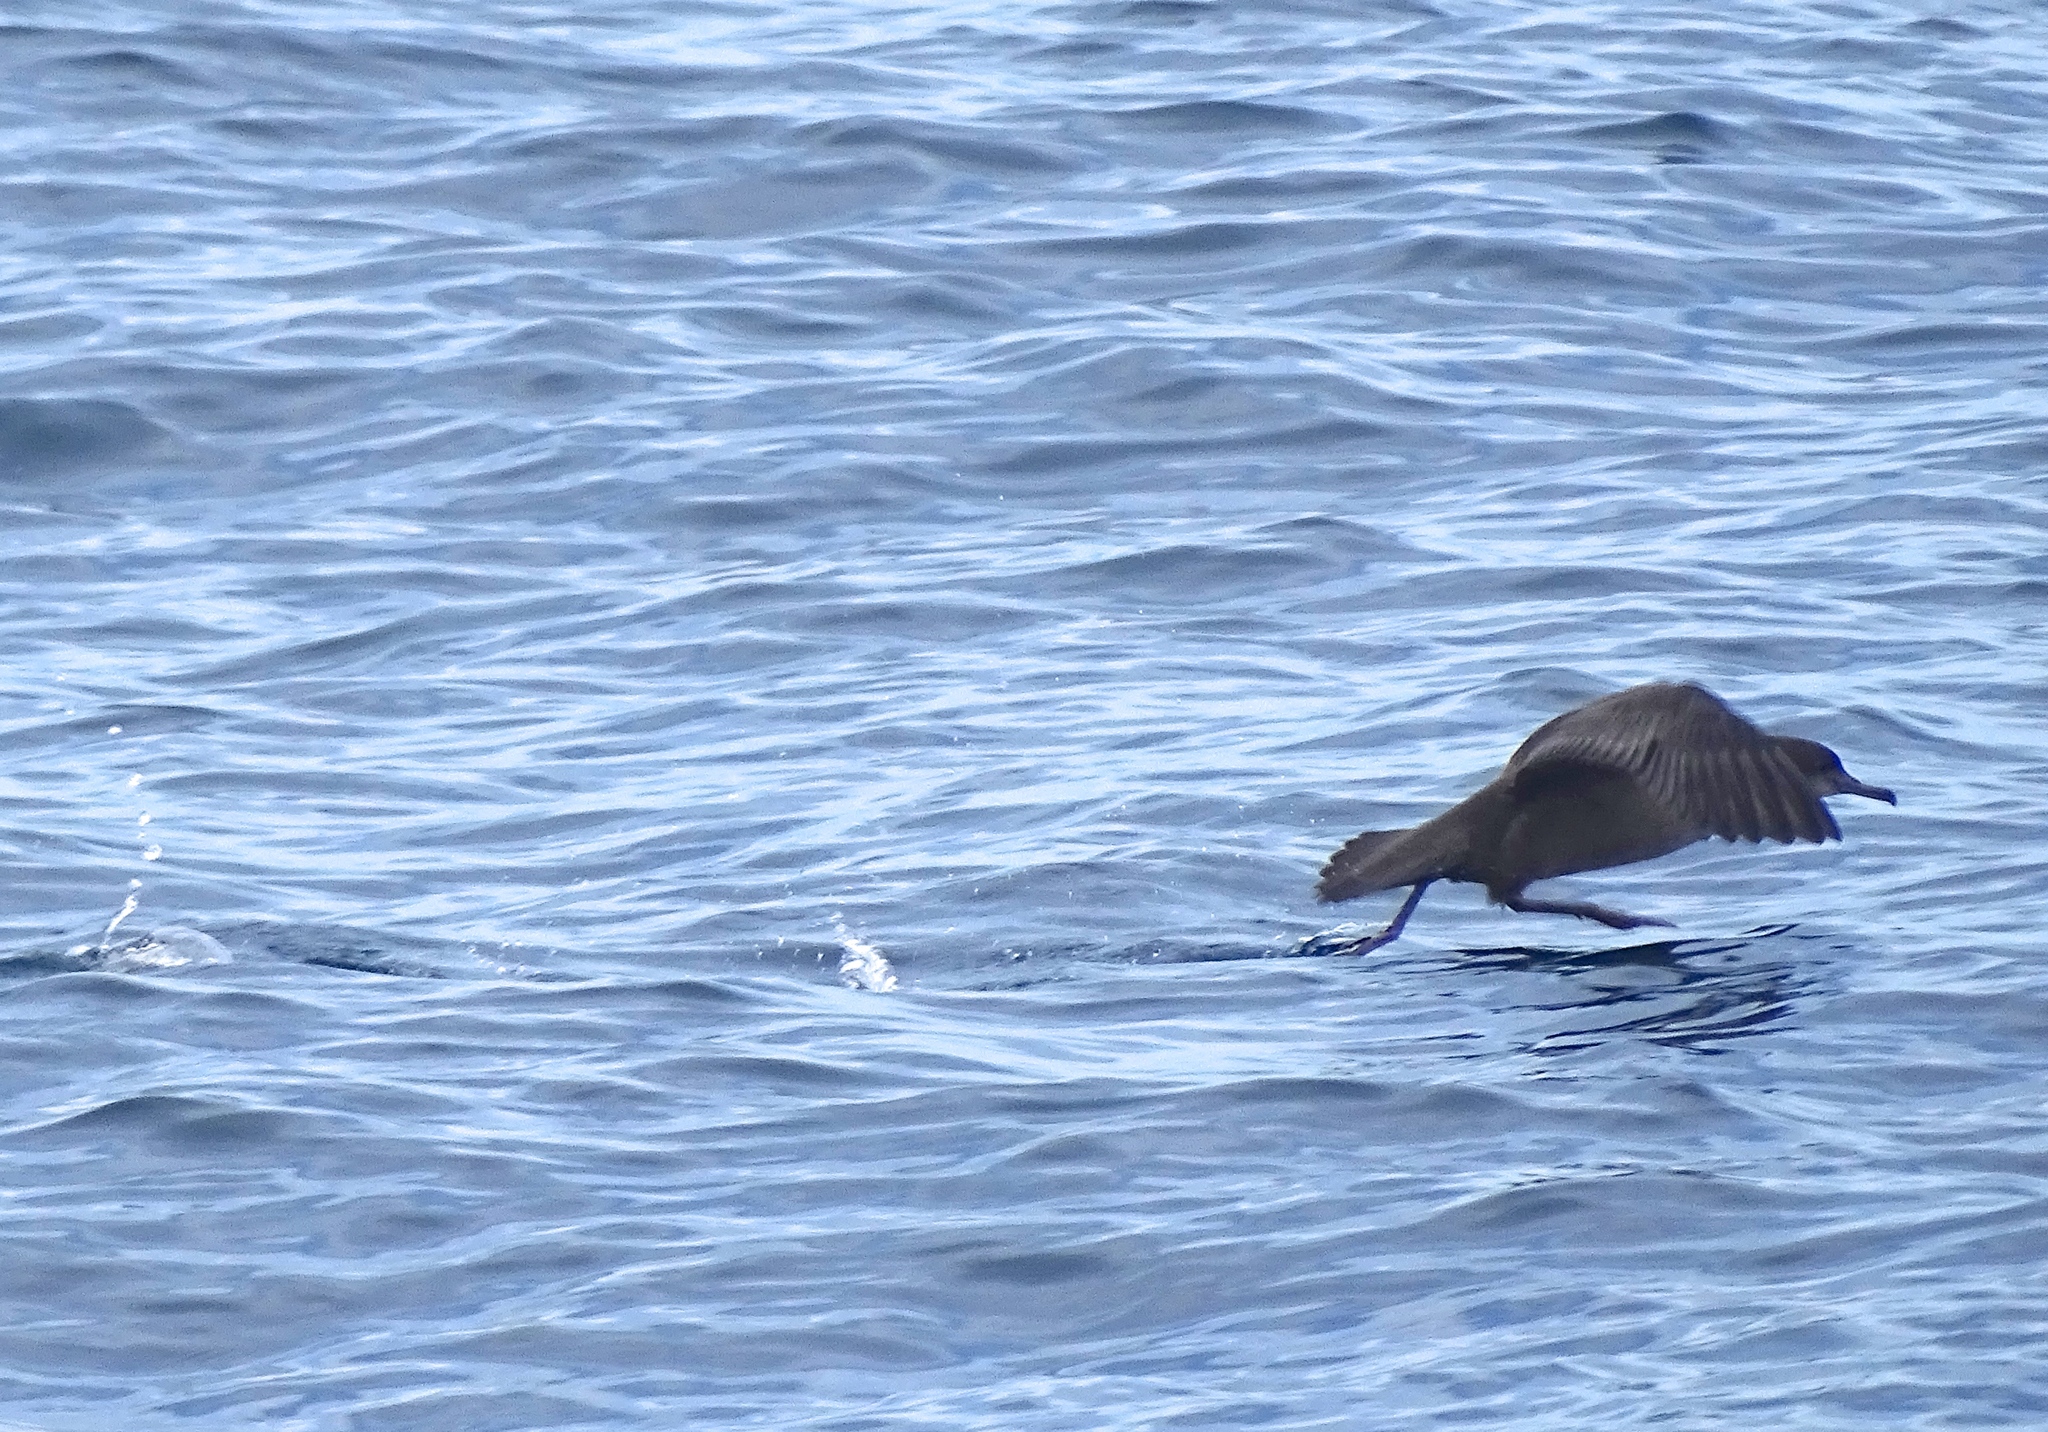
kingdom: Animalia
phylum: Chordata
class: Aves
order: Procellariiformes
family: Procellariidae
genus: Puffinus
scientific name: Puffinus griseus
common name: Sooty shearwater
